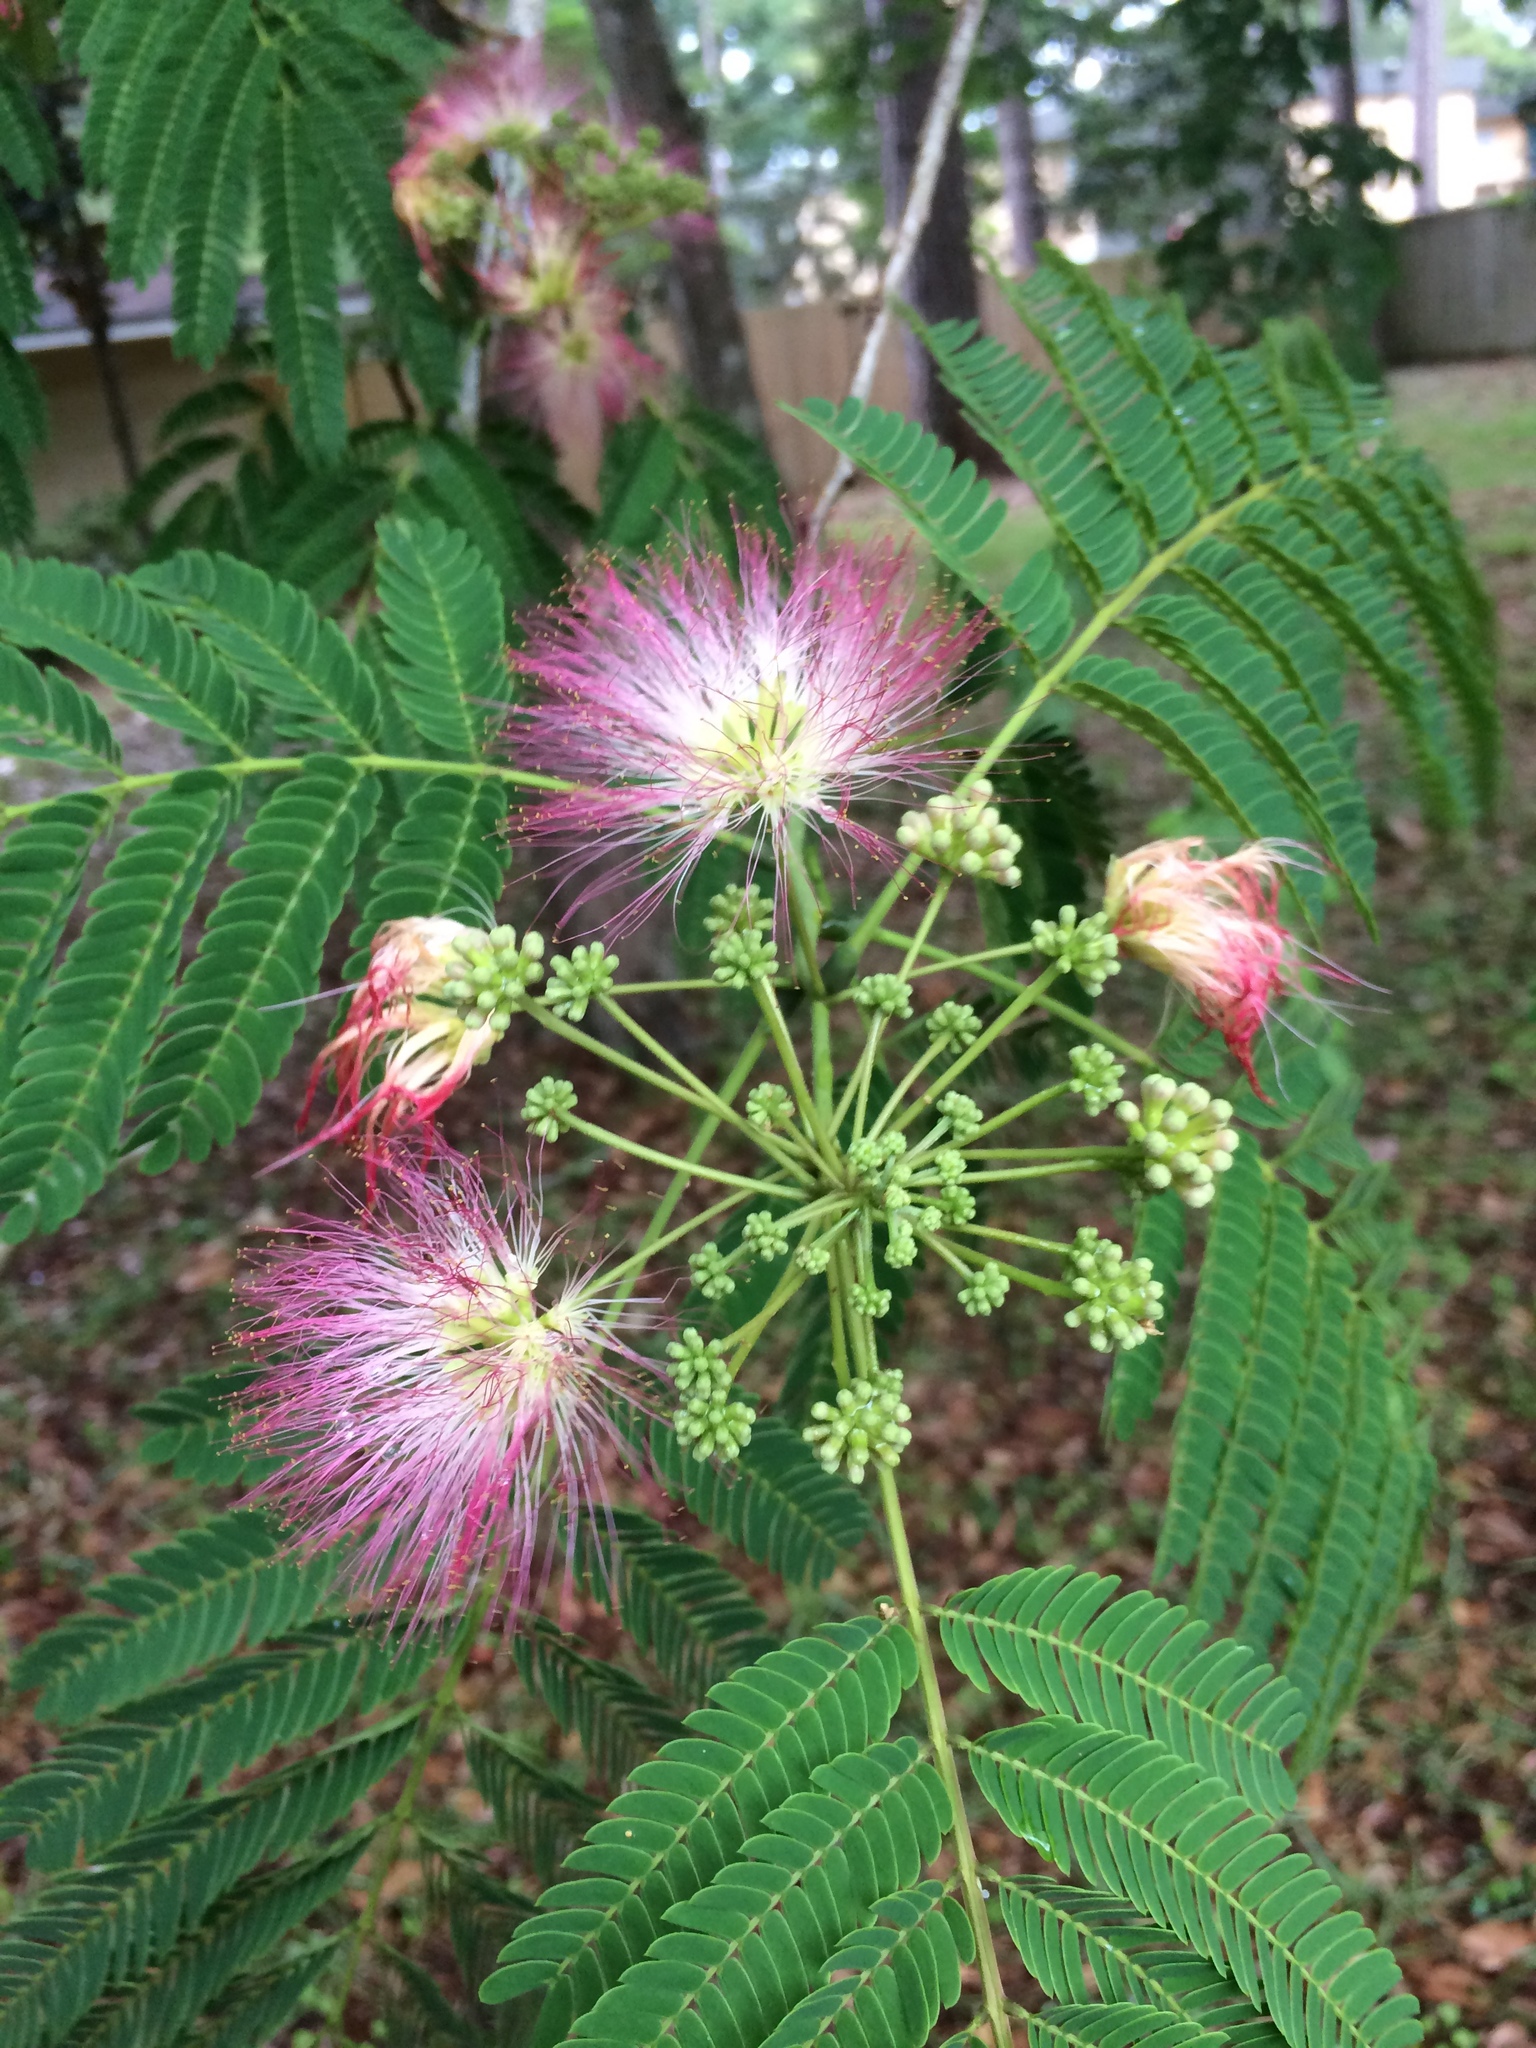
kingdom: Plantae
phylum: Tracheophyta
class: Magnoliopsida
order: Fabales
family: Fabaceae
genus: Albizia
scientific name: Albizia julibrissin
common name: Silktree
